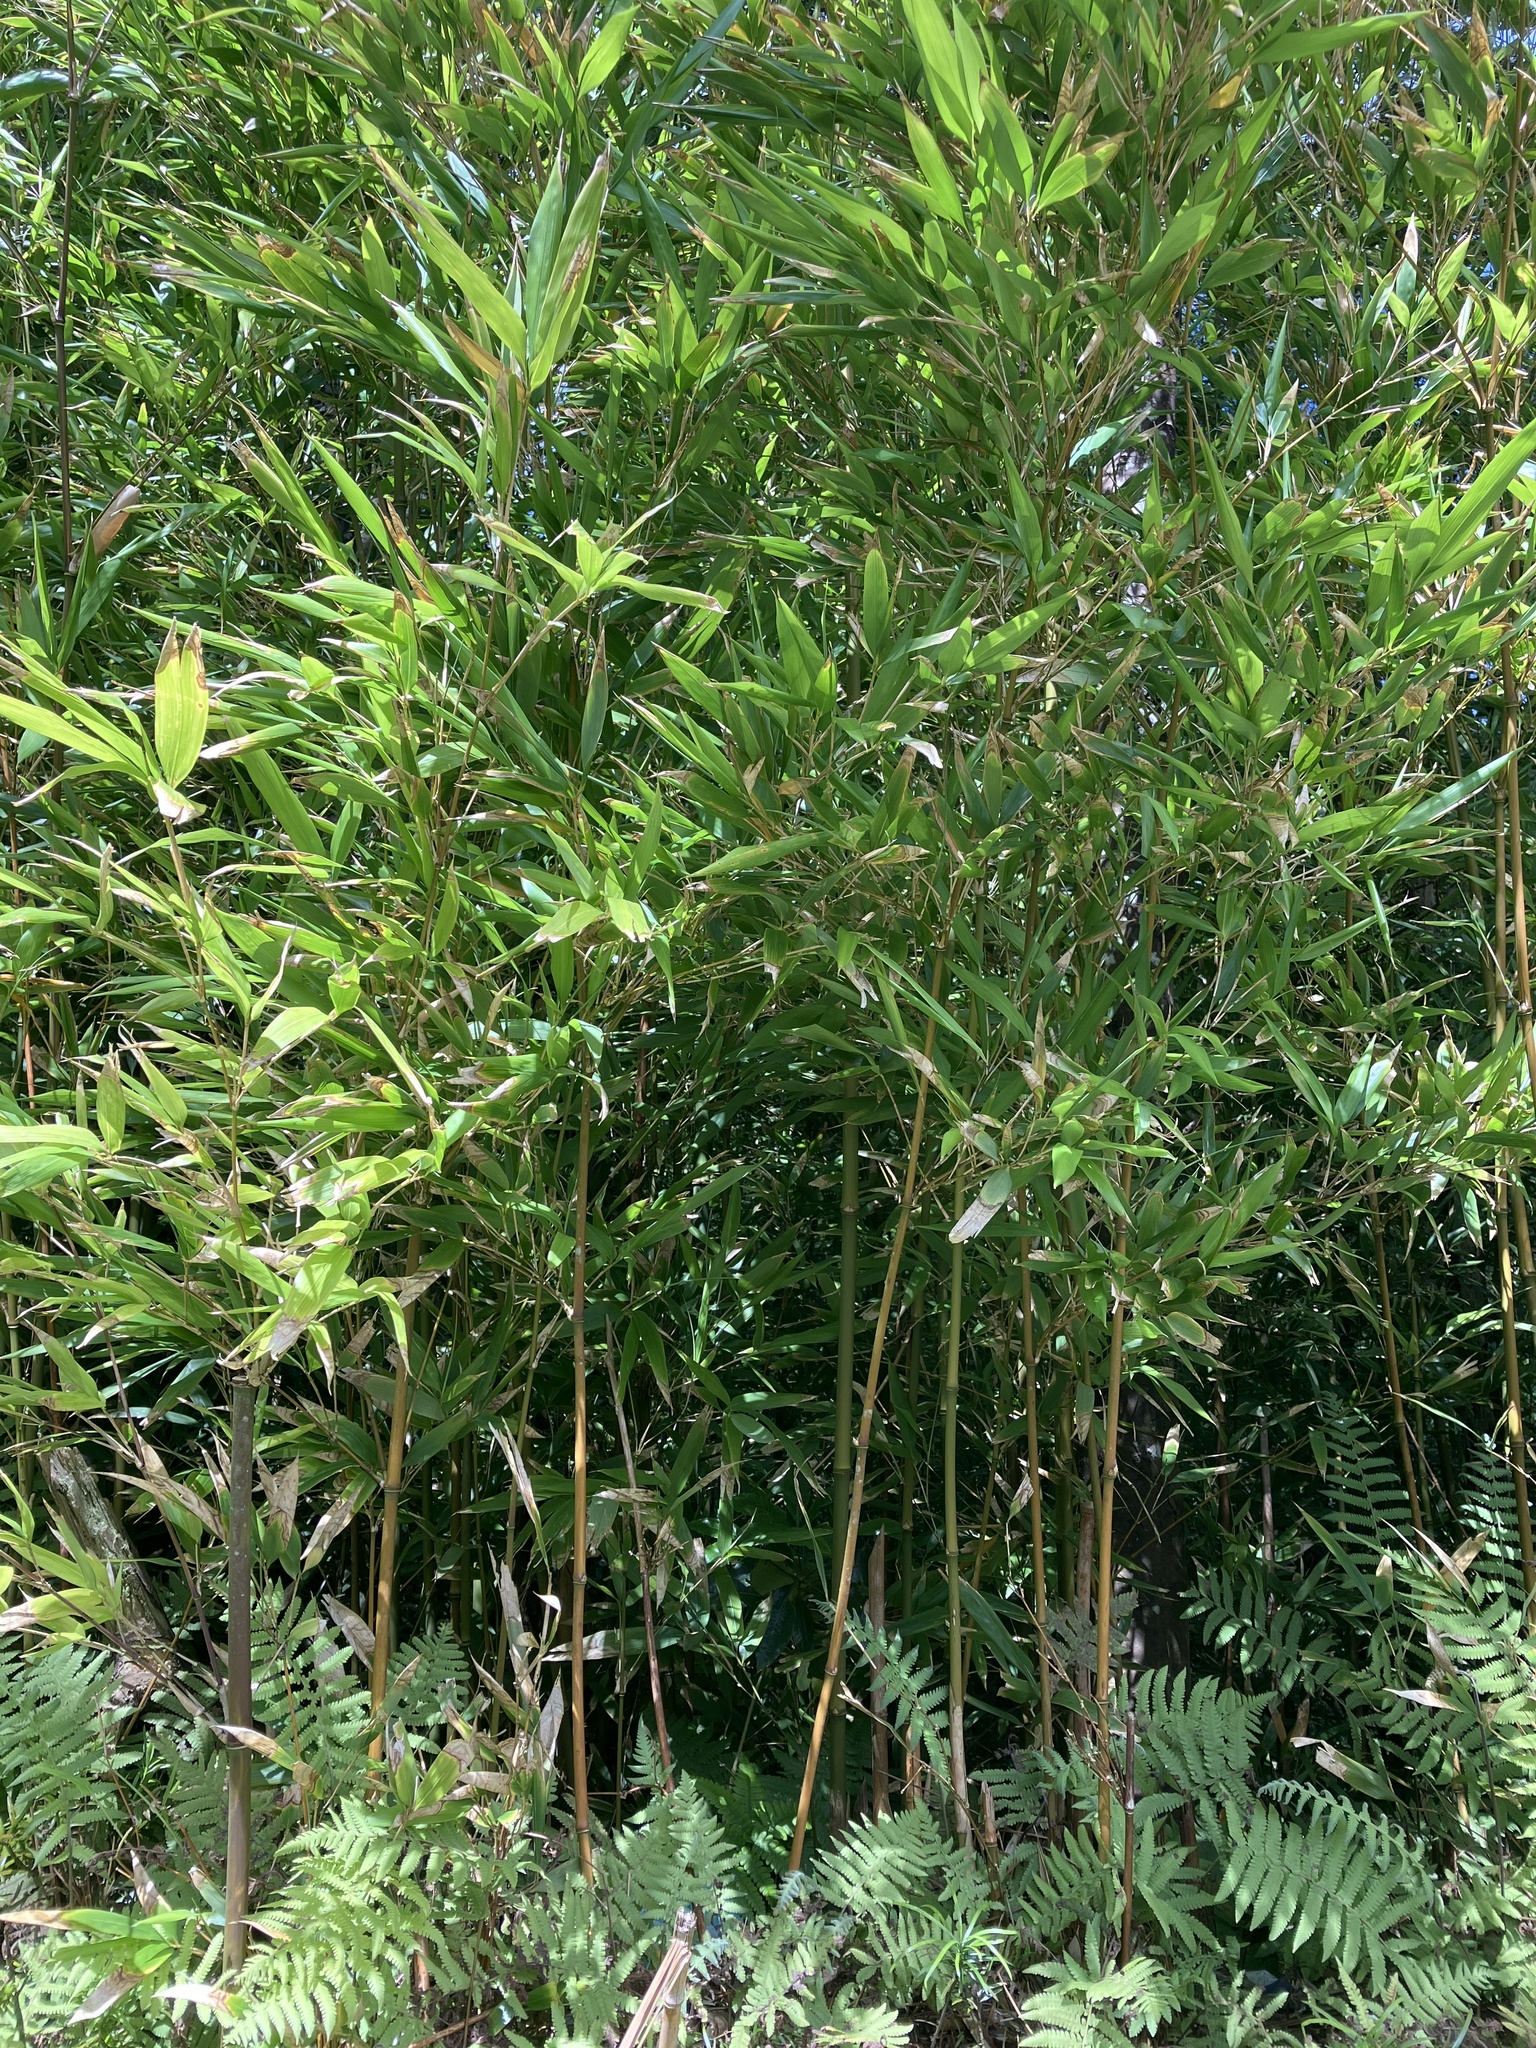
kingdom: Plantae
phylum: Tracheophyta
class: Liliopsida
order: Poales
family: Poaceae
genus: Bambusa
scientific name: Bambusa vulgaris
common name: Common bamboo
